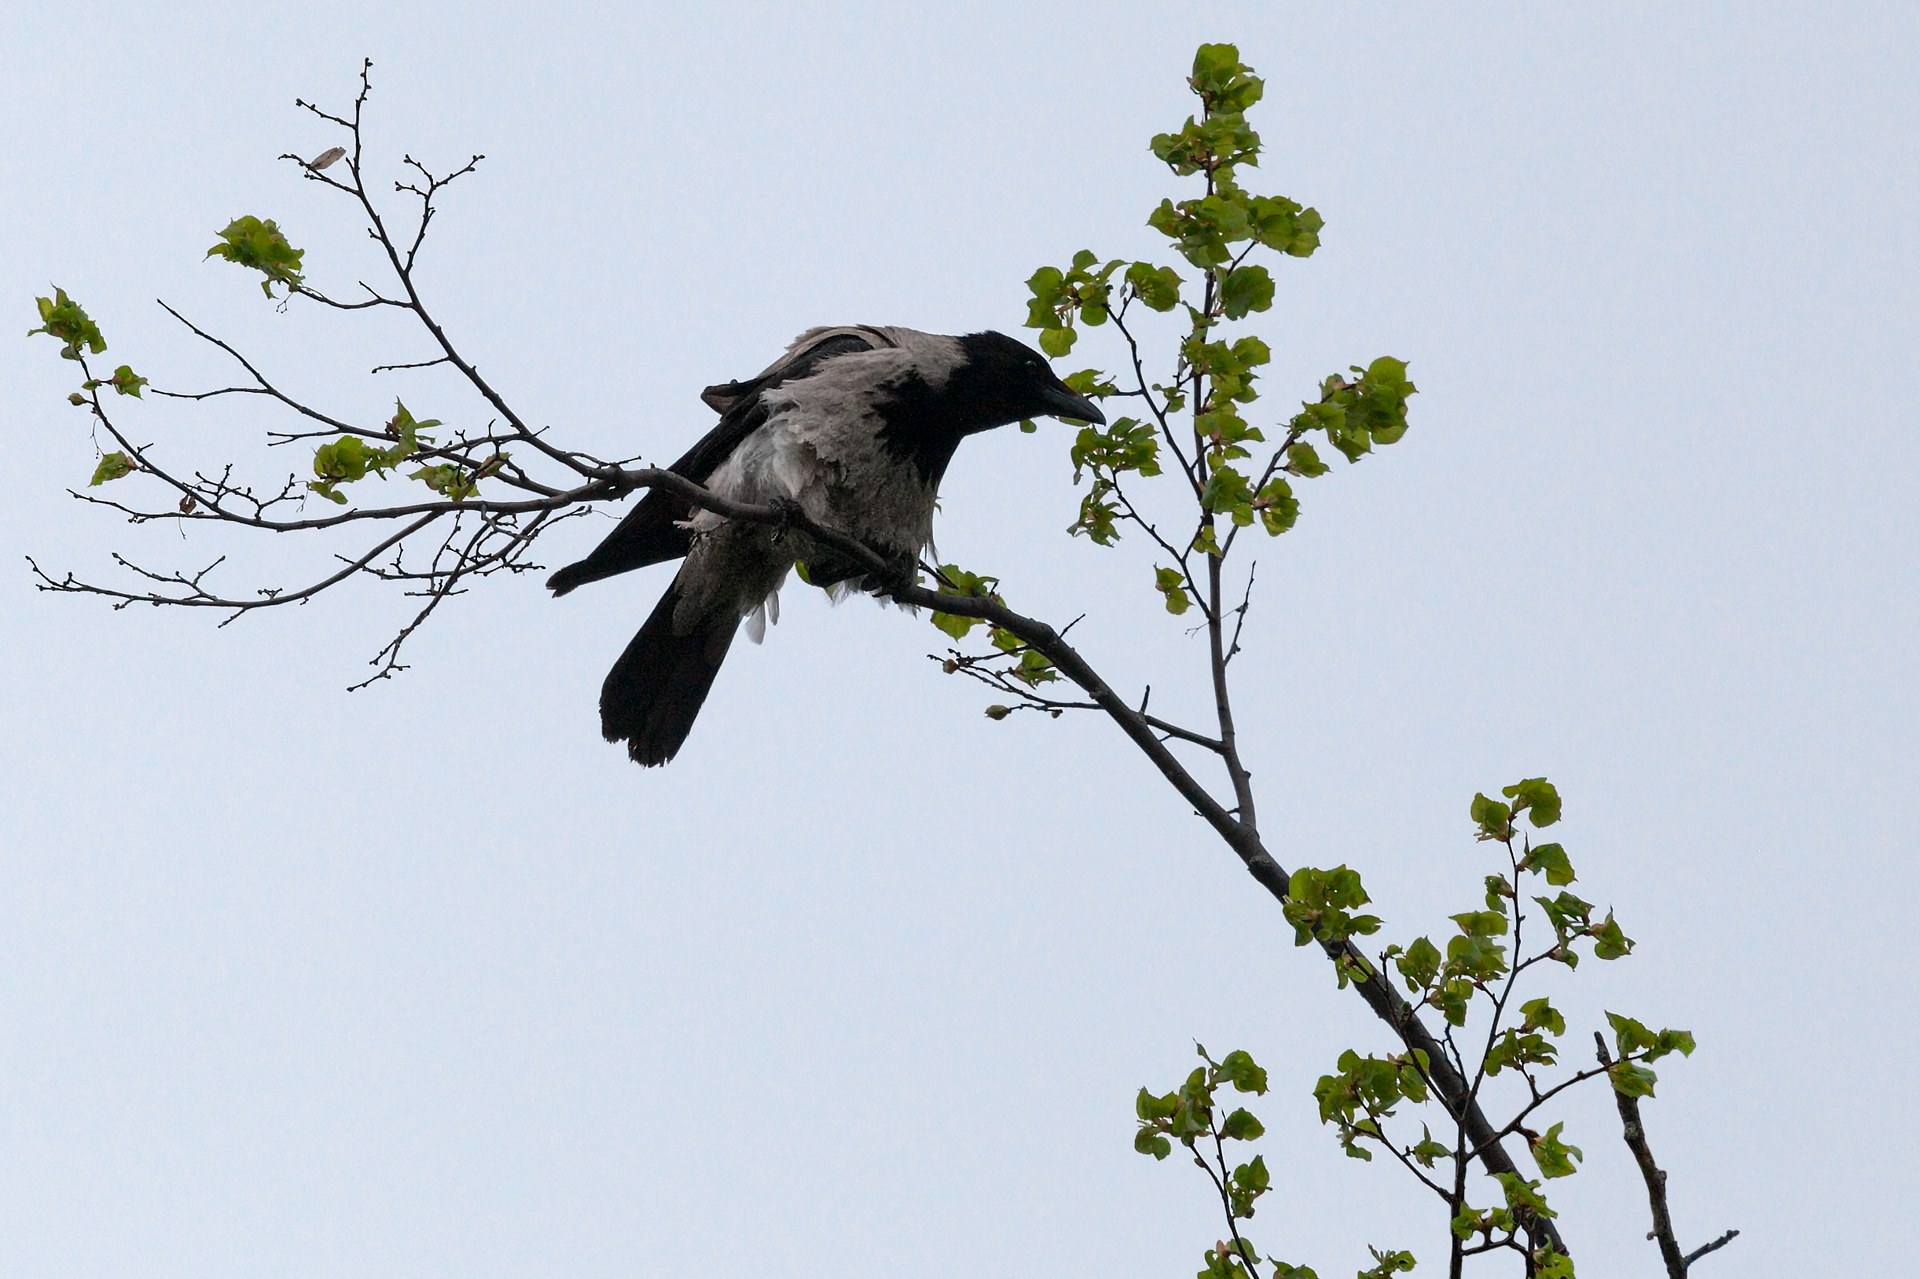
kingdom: Animalia
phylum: Chordata
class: Aves
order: Passeriformes
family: Corvidae
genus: Corvus
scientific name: Corvus cornix
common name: Hooded crow
